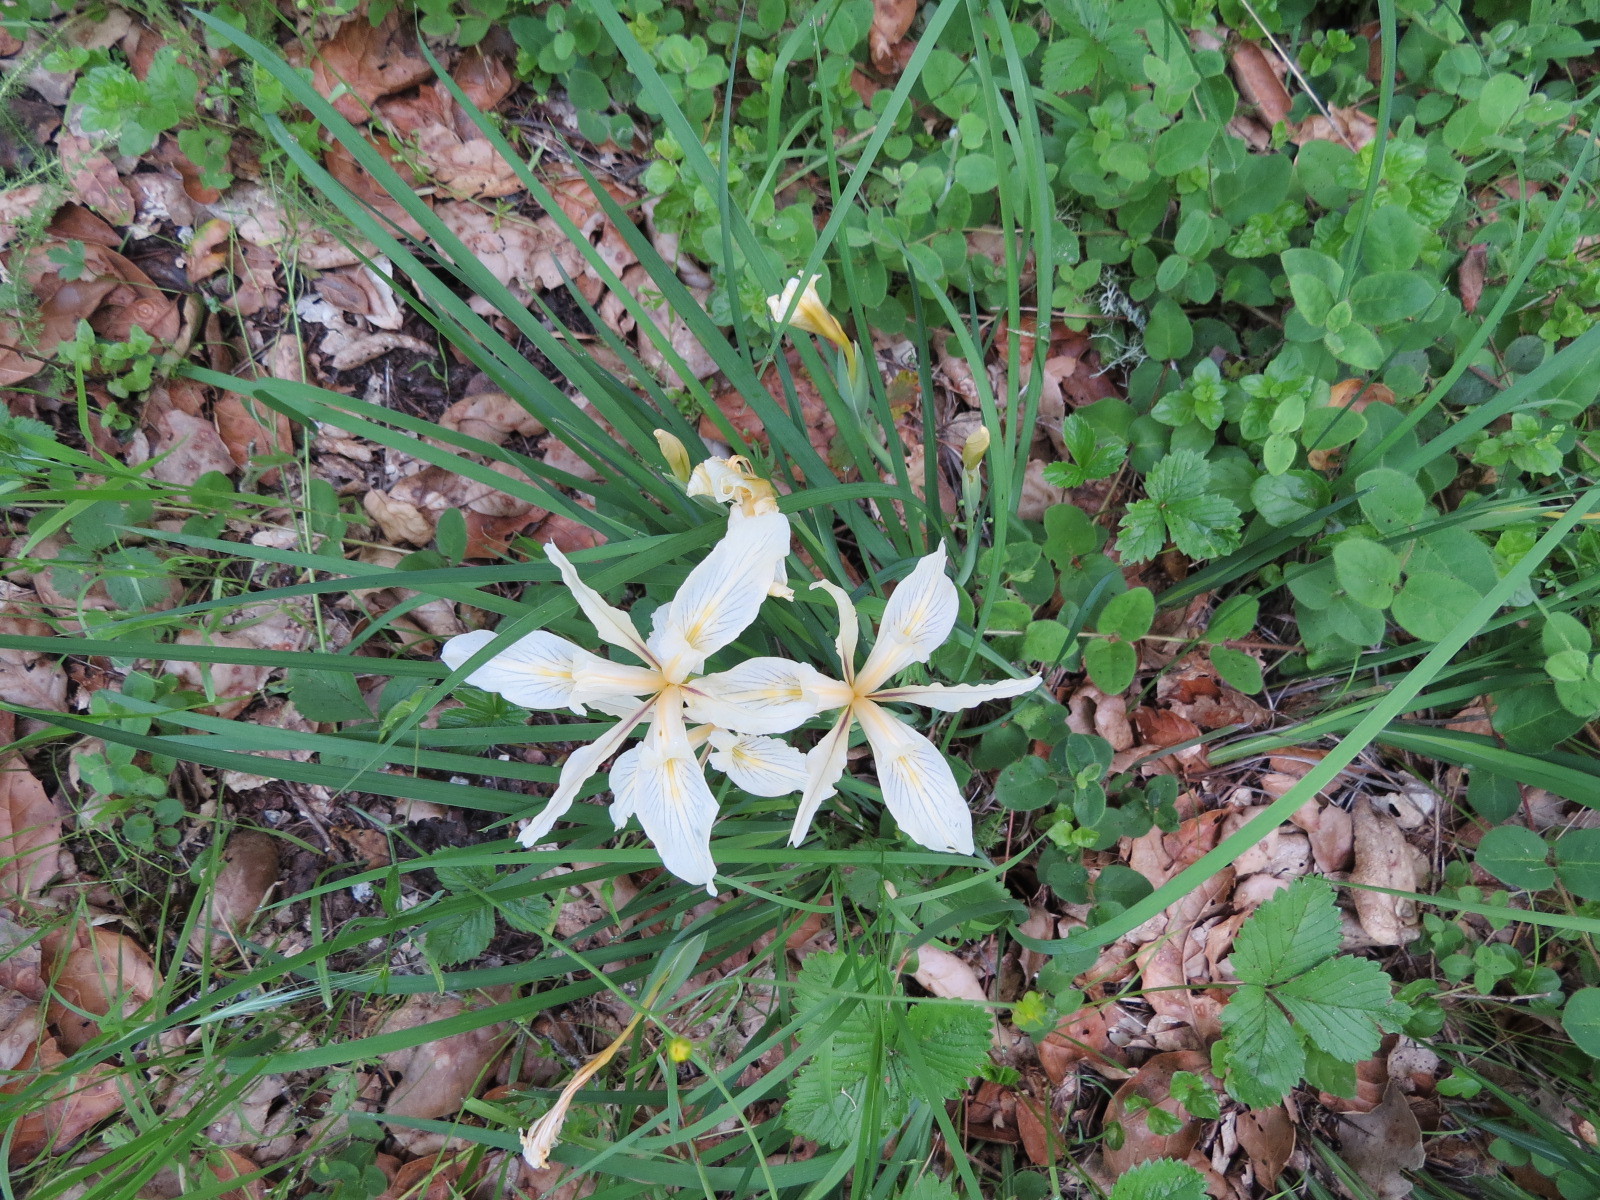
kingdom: Plantae
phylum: Tracheophyta
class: Liliopsida
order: Asparagales
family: Iridaceae
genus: Iris
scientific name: Iris fernaldii
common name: Fernald's iris
